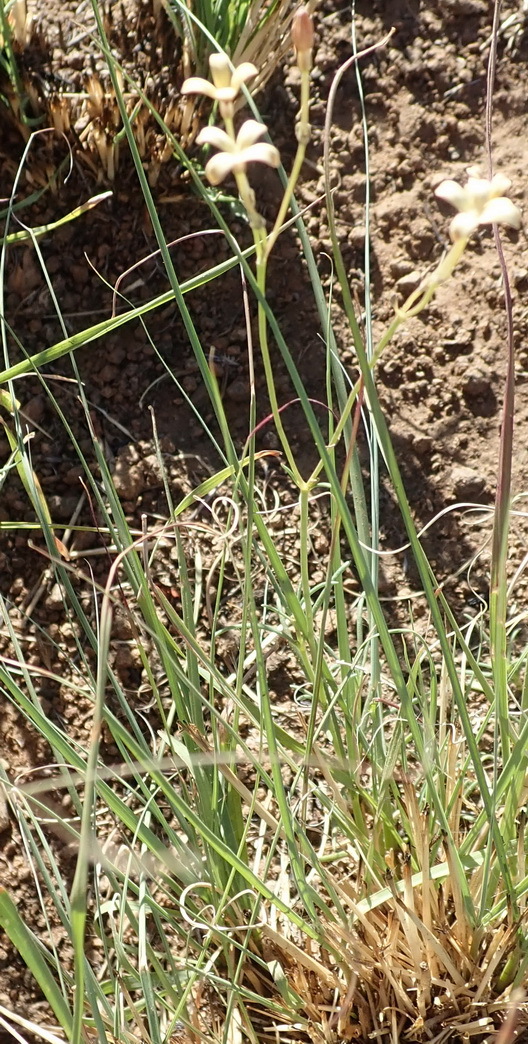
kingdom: Plantae
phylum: Tracheophyta
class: Magnoliopsida
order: Gentianales
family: Rubiaceae
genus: Kohautia
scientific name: Kohautia amatymbica
